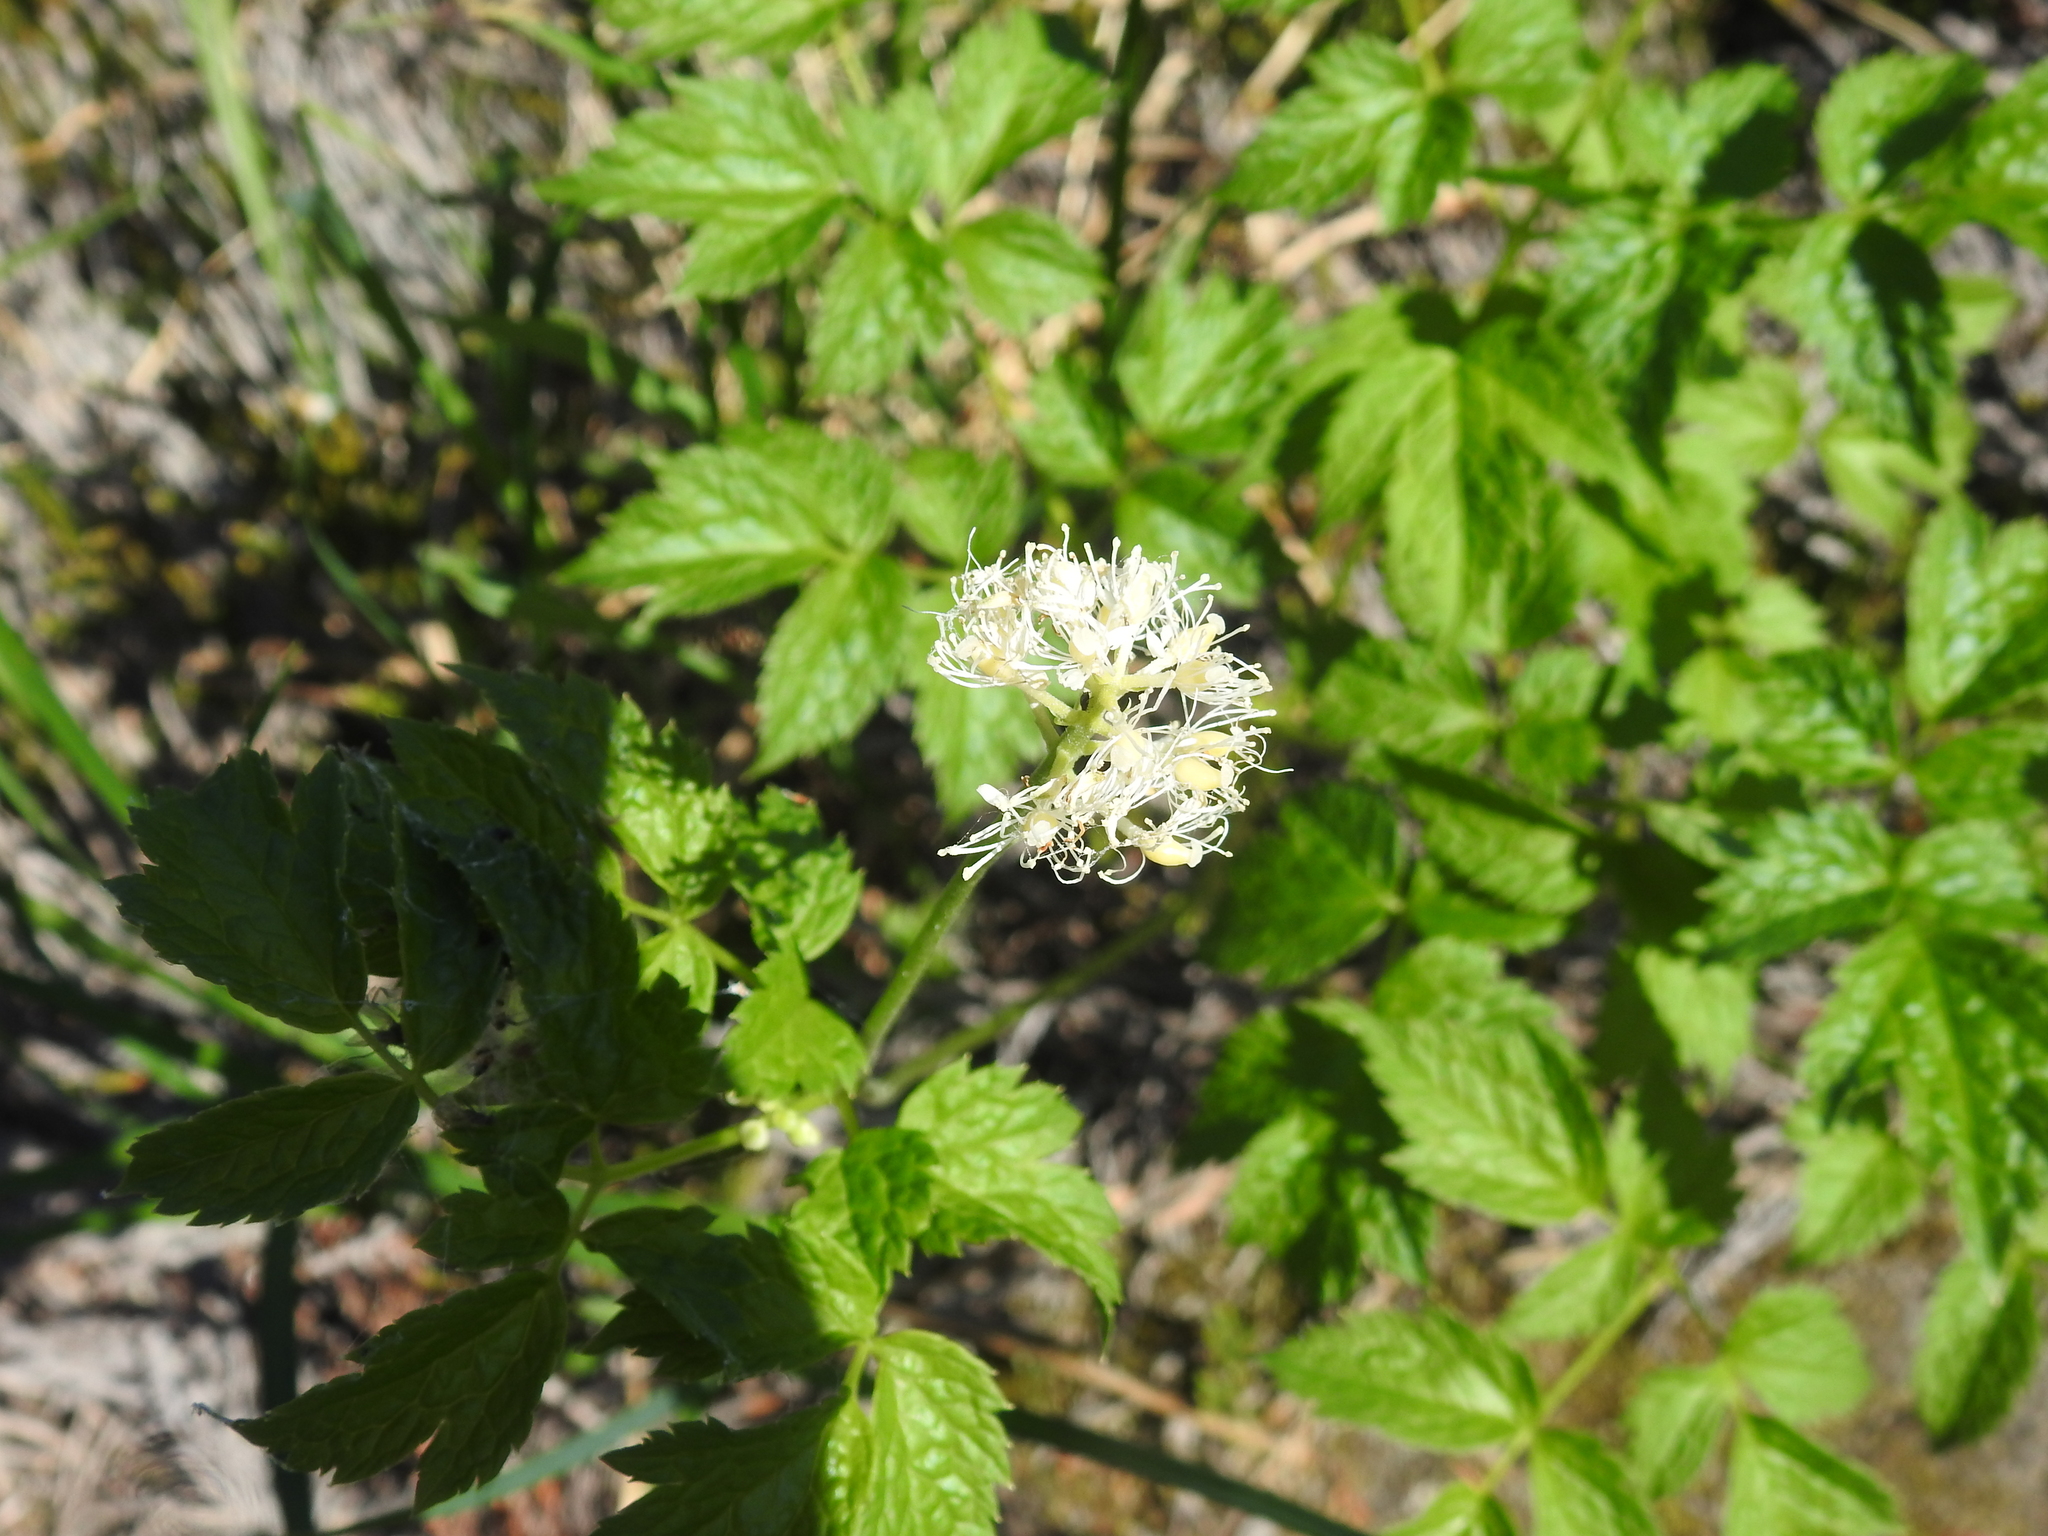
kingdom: Plantae
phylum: Tracheophyta
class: Magnoliopsida
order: Ranunculales
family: Ranunculaceae
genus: Actaea
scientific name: Actaea rubra
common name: Red baneberry
